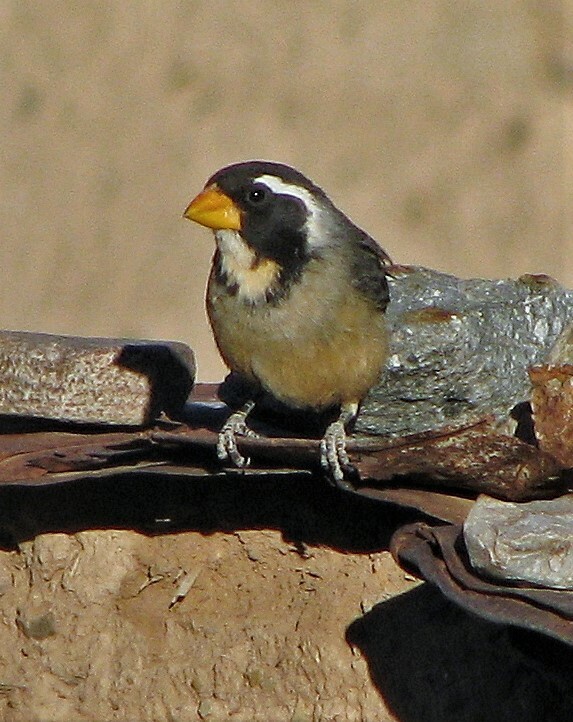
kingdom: Animalia
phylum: Chordata
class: Aves
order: Passeriformes
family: Thraupidae
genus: Saltator
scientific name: Saltator aurantiirostris
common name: Golden-billed saltator
